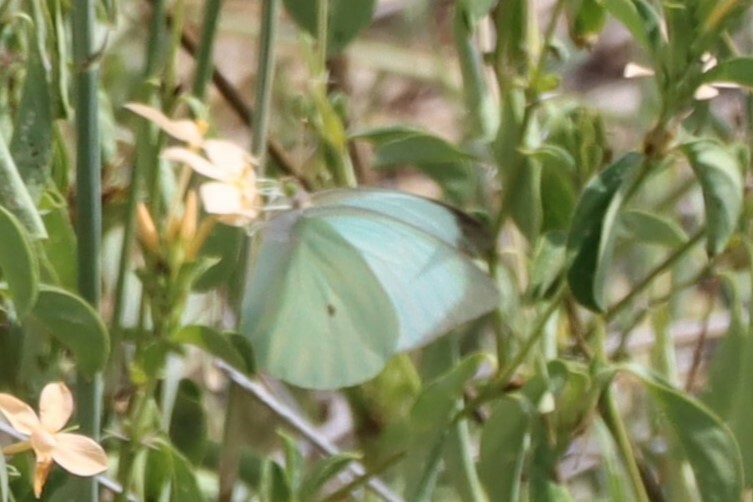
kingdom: Animalia
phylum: Arthropoda
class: Insecta
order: Lepidoptera
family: Pieridae
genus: Nepheronia
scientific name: Nepheronia buquetii
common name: Plain vagrant
